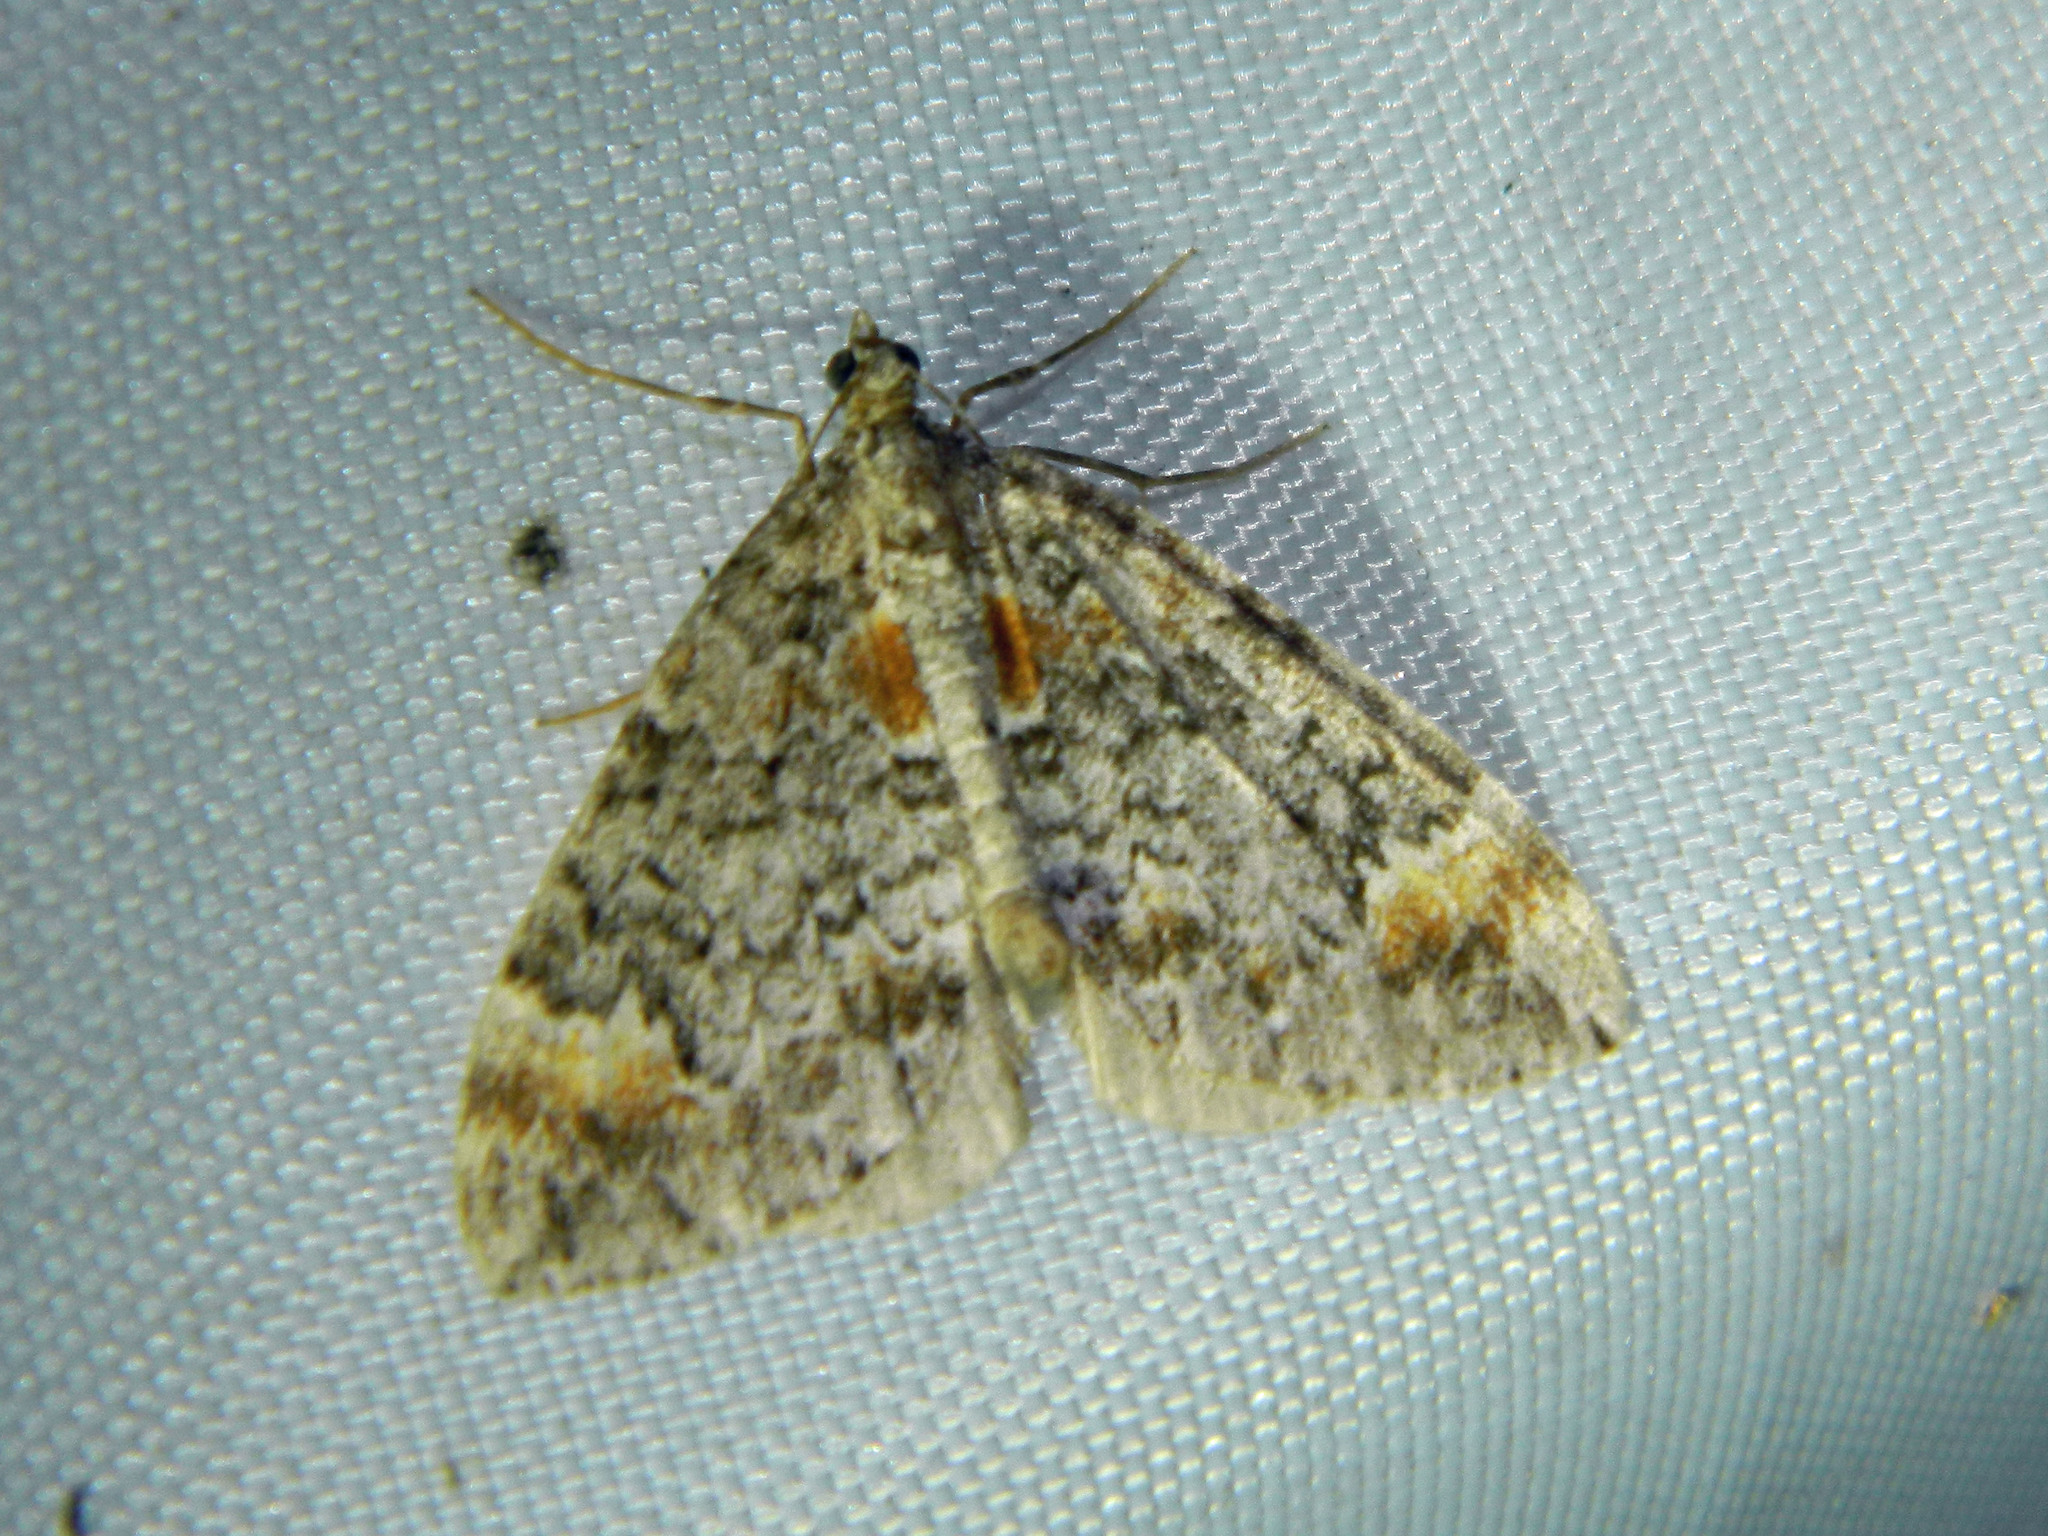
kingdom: Animalia
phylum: Arthropoda
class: Insecta
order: Lepidoptera
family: Geometridae
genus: Dysstroma
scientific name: Dysstroma truncata
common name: Common marbled carpet
